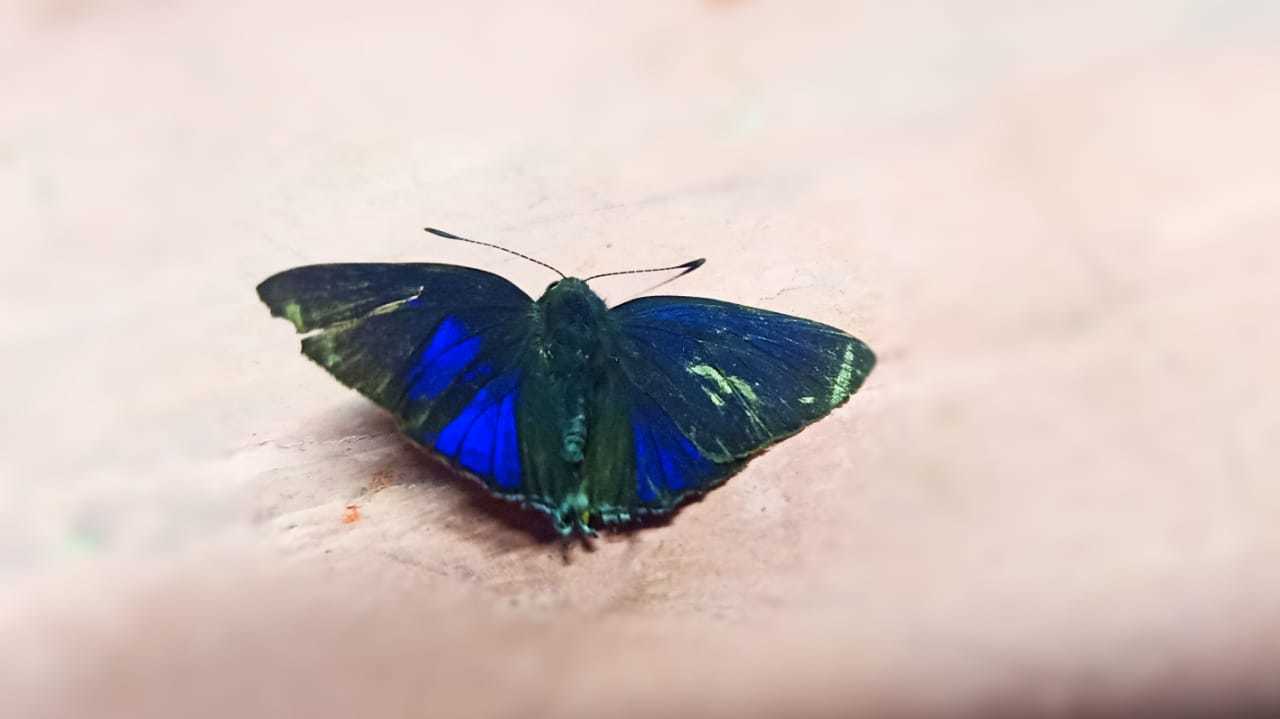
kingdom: Animalia
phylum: Arthropoda
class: Insecta
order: Lepidoptera
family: Lycaenidae
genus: Rapala
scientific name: Rapala manea
